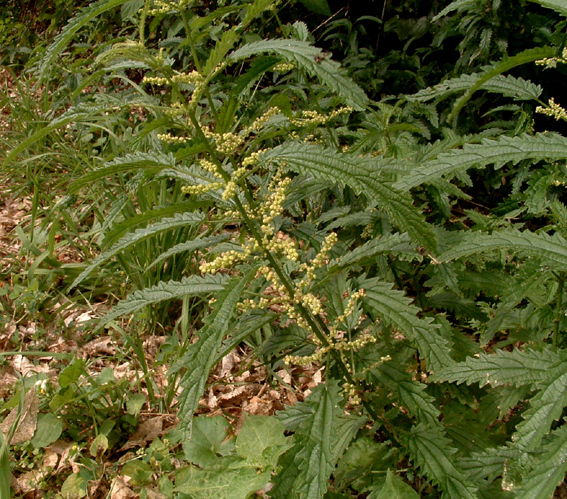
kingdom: Plantae
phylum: Tracheophyta
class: Magnoliopsida
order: Rosales
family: Urticaceae
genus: Urtica
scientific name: Urtica incisa
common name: Scrub nettle
